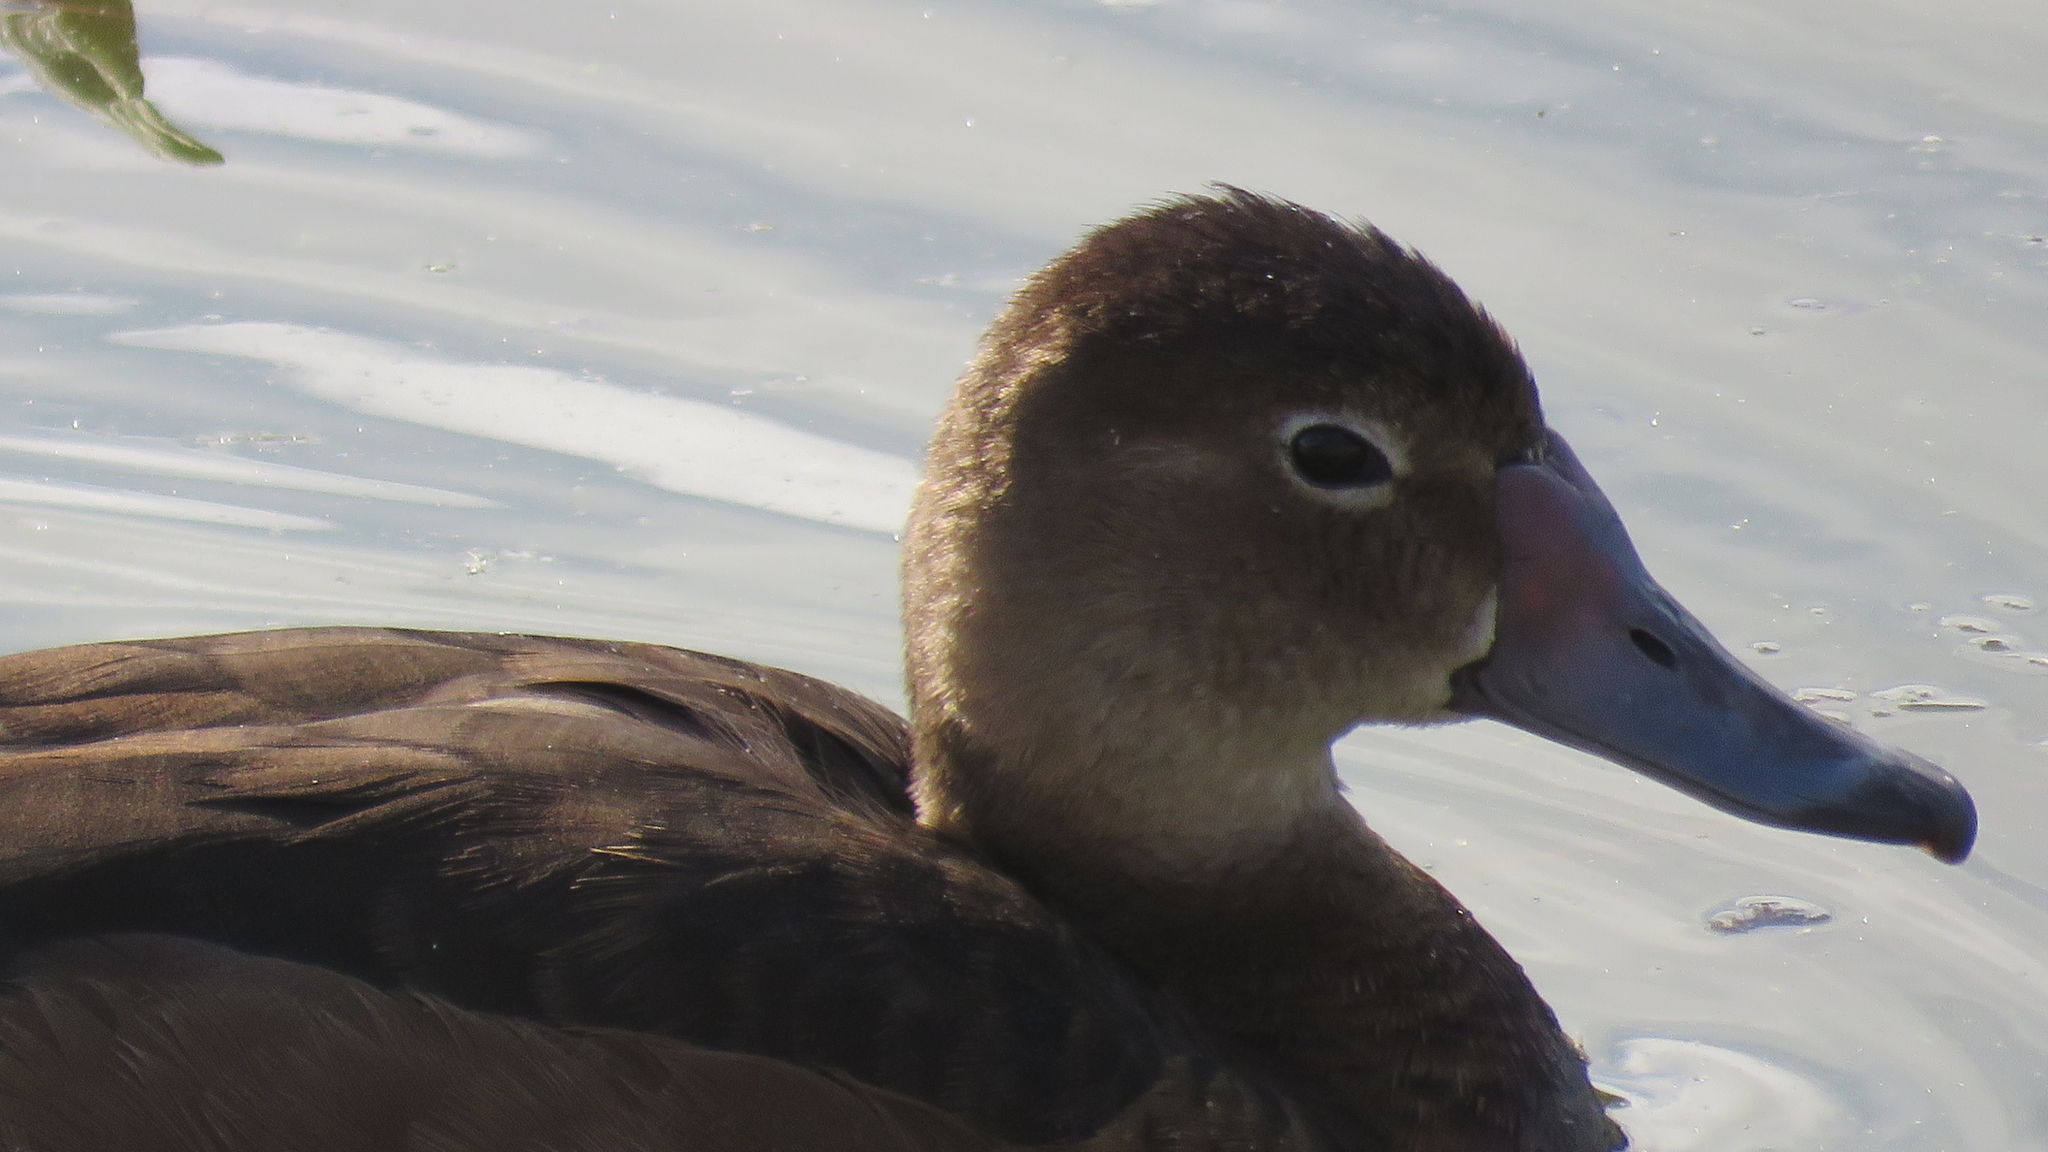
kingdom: Animalia
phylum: Chordata
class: Aves
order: Anseriformes
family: Anatidae
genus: Netta
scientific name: Netta peposaca
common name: Rosy-billed pochard
